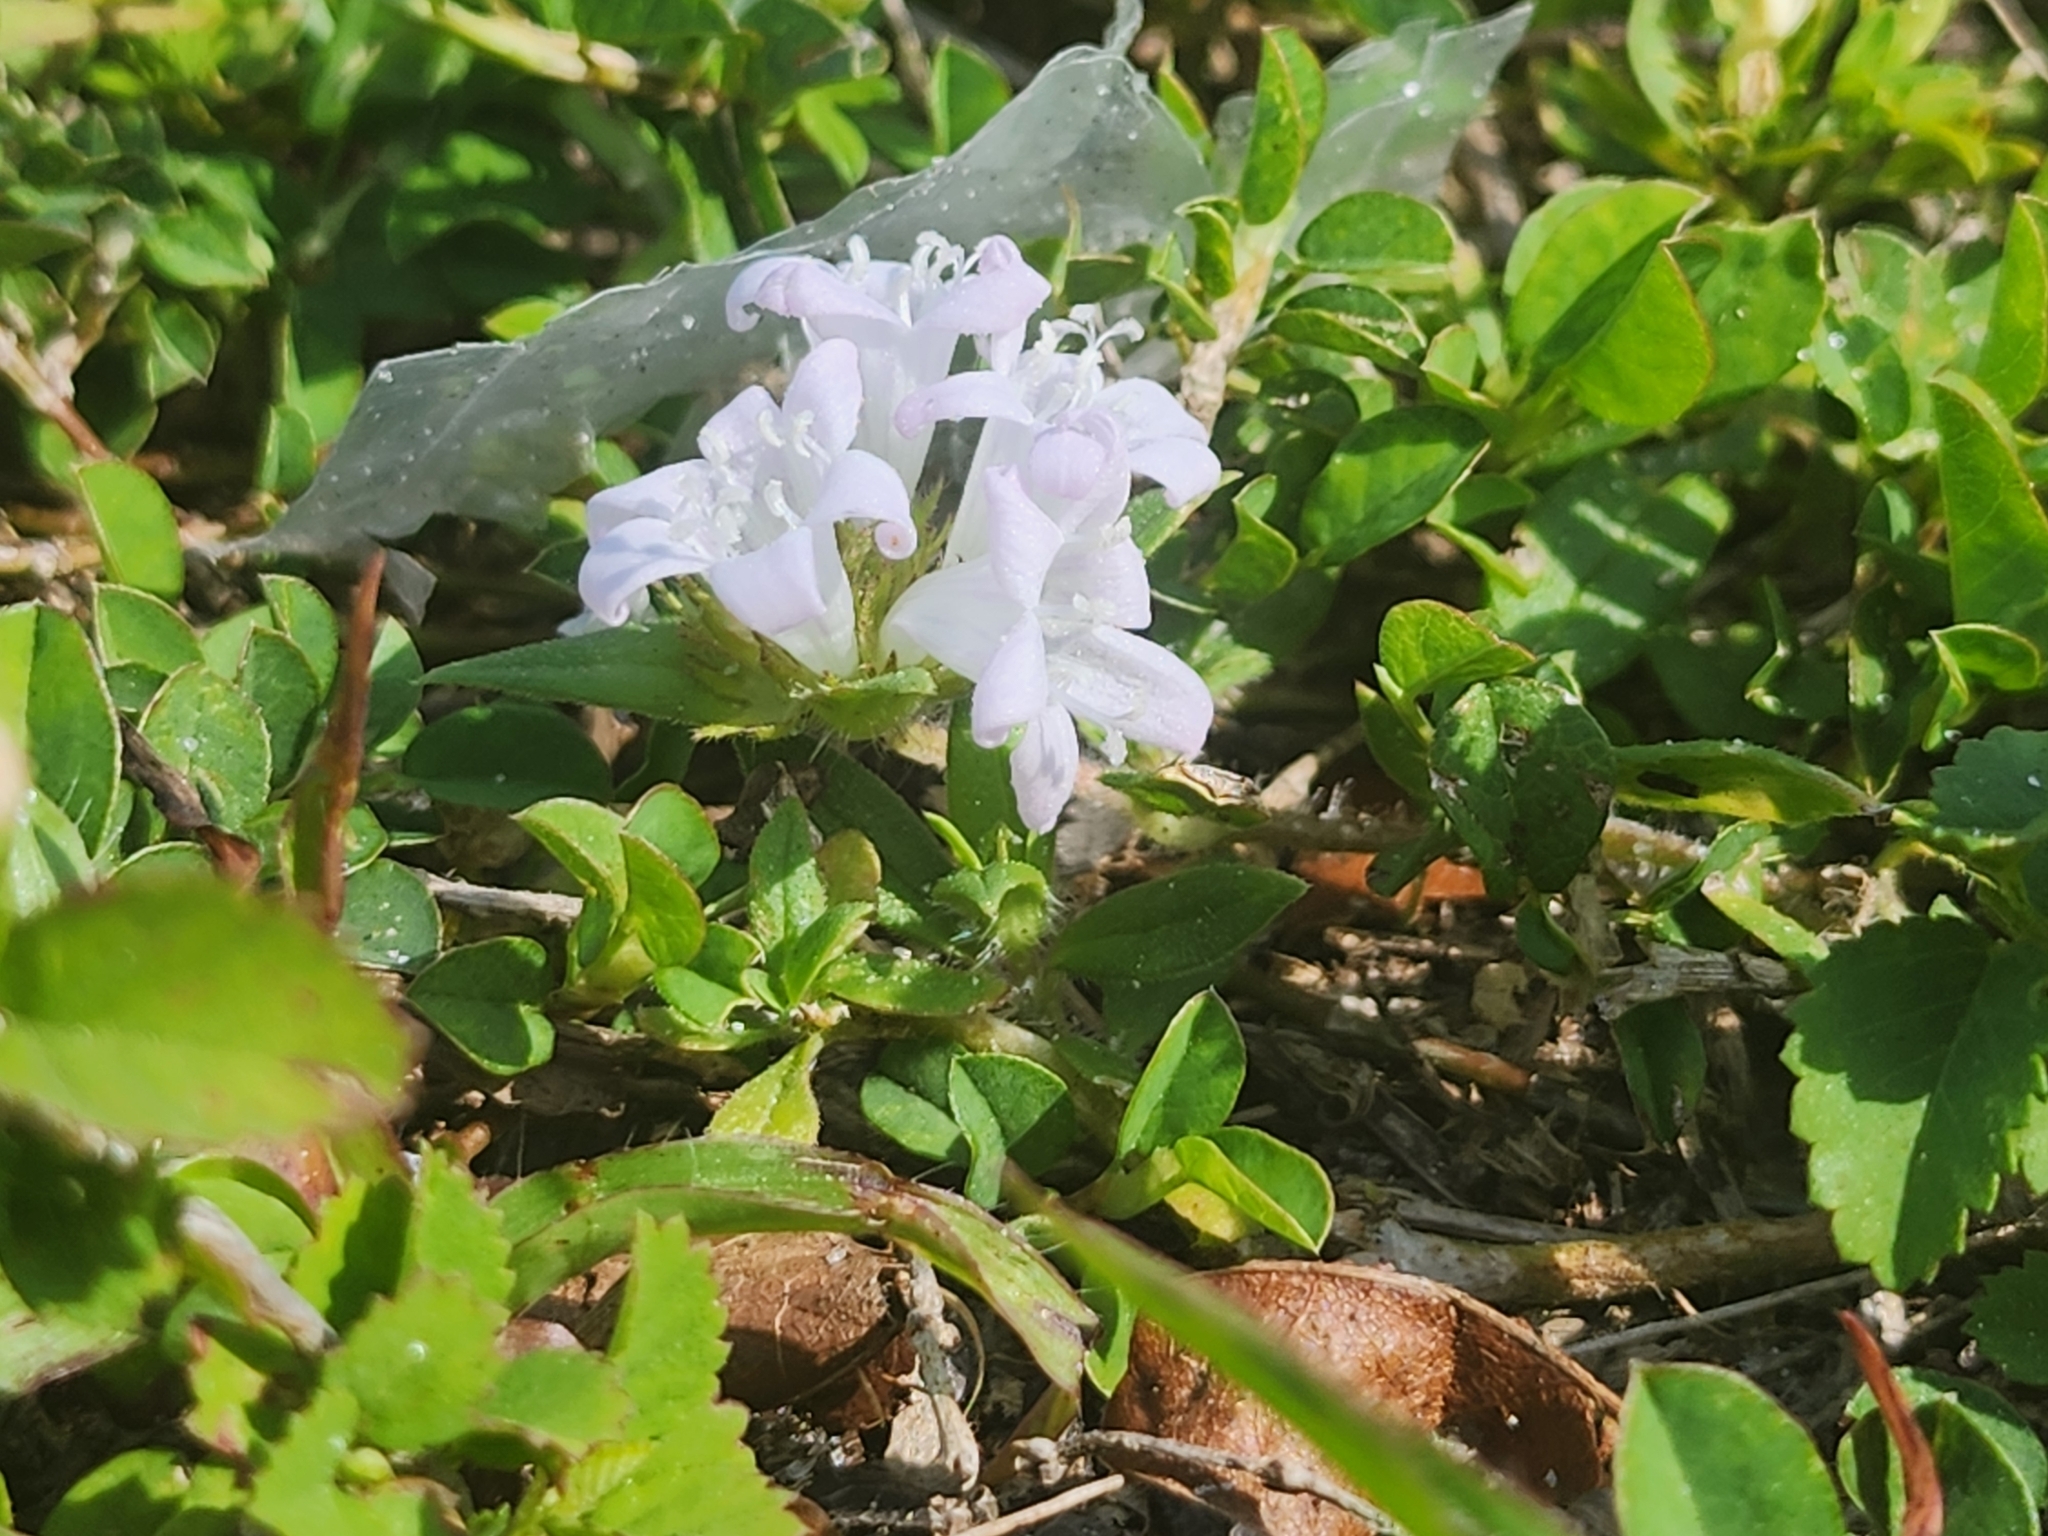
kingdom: Plantae
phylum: Tracheophyta
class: Magnoliopsida
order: Gentianales
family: Rubiaceae
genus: Richardia
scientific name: Richardia grandiflora
